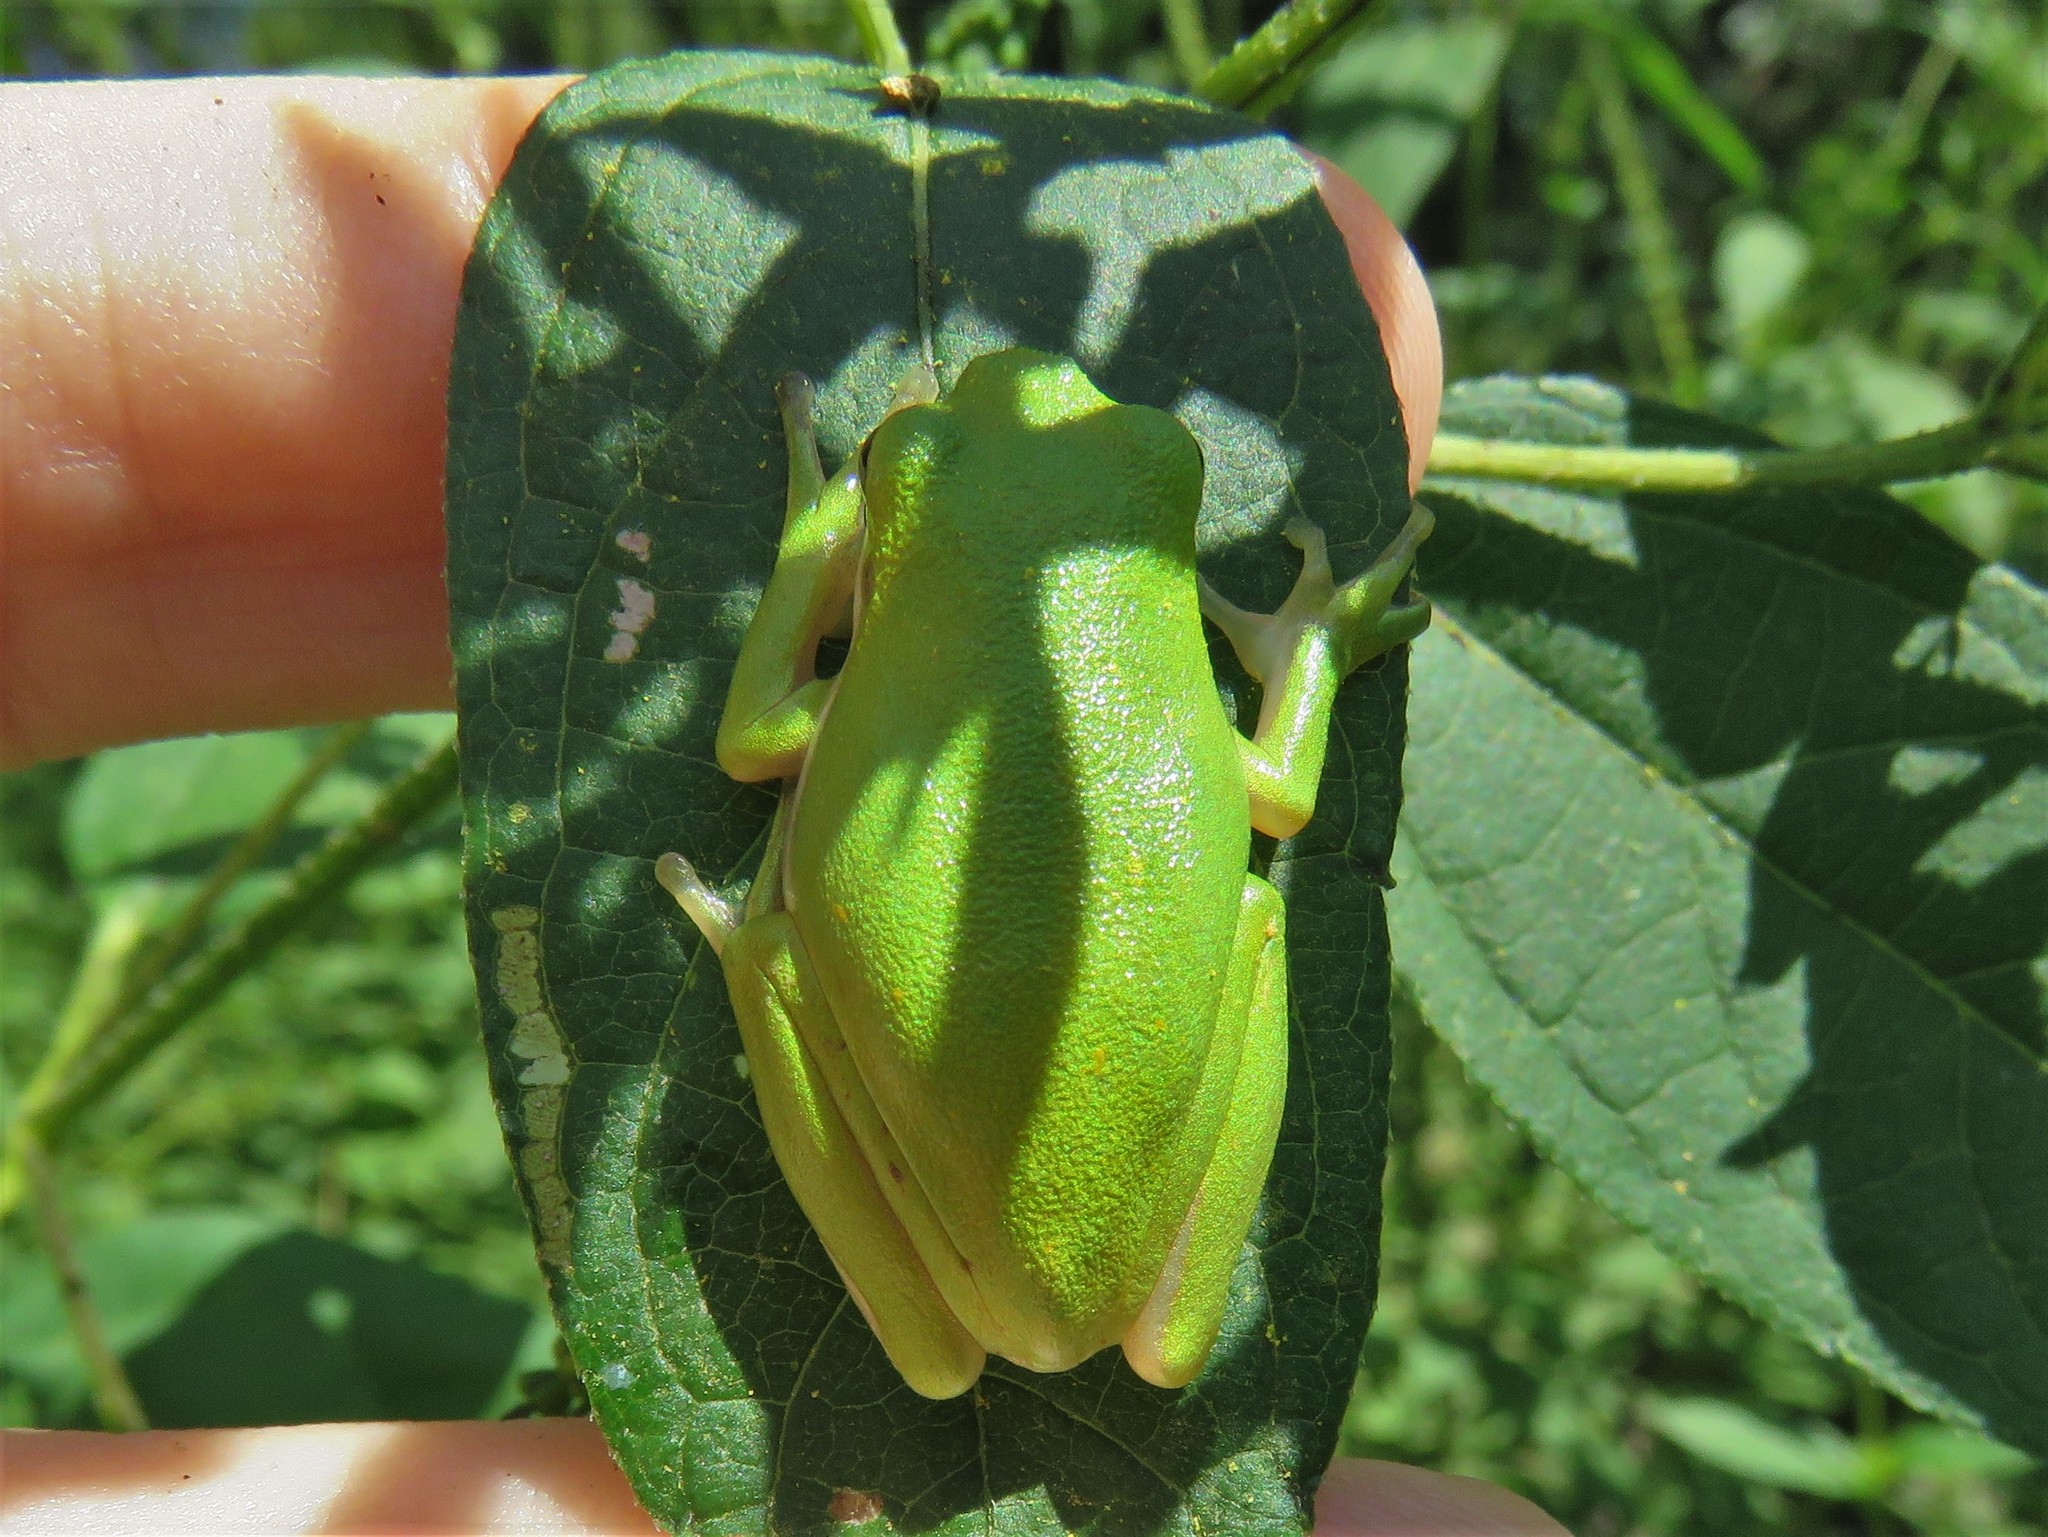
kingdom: Animalia
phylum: Chordata
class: Amphibia
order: Anura
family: Hylidae
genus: Dryophytes
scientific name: Dryophytes cinereus
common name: Green treefrog
